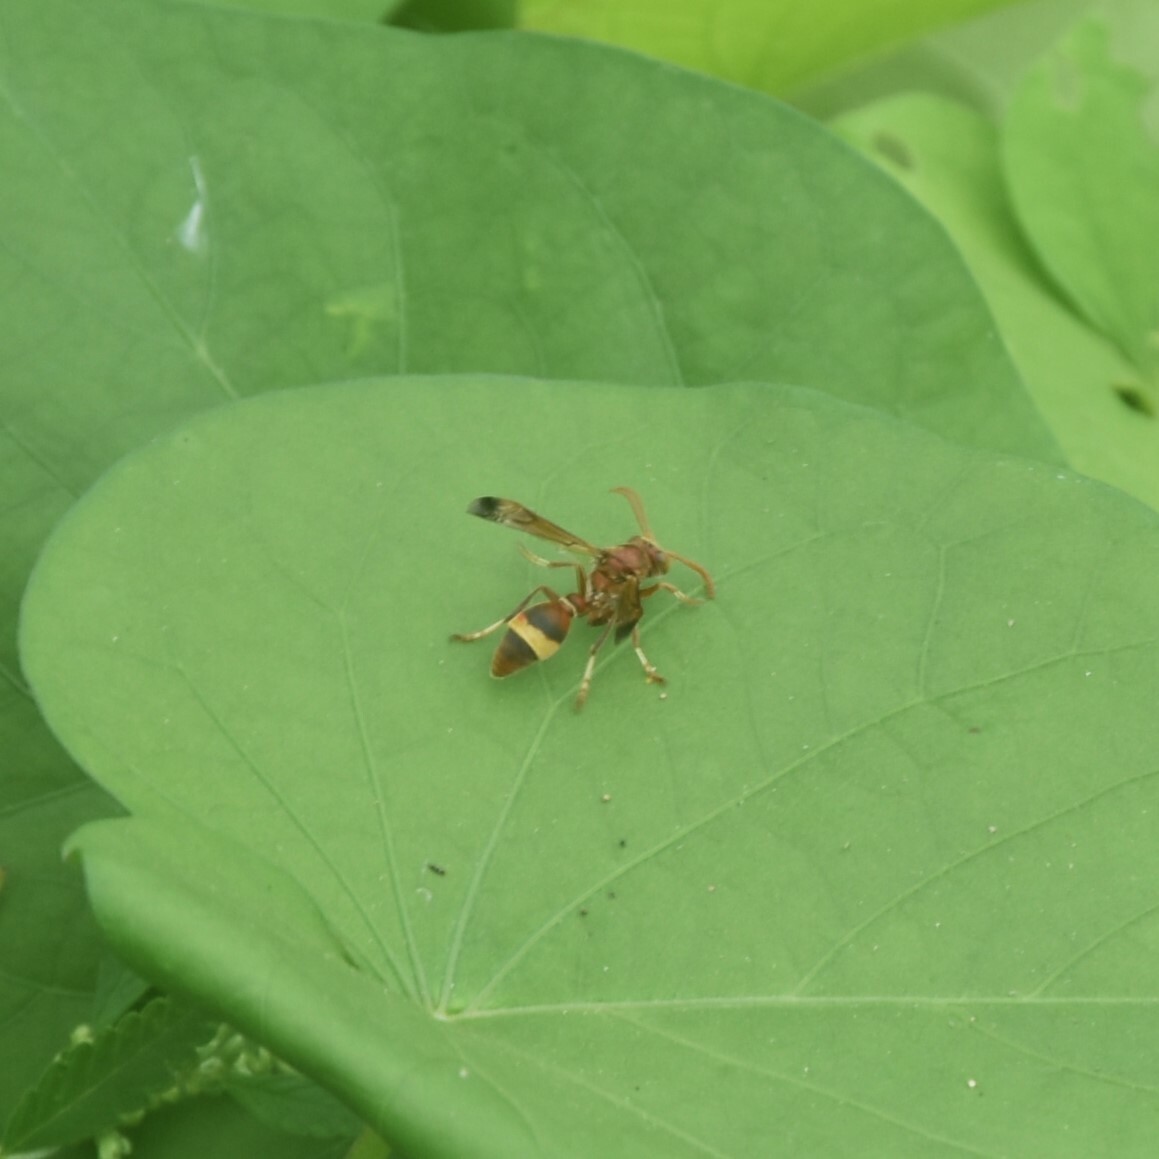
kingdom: Animalia
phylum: Arthropoda
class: Insecta
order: Hymenoptera
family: Vespidae
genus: Ropalidia
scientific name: Ropalidia
